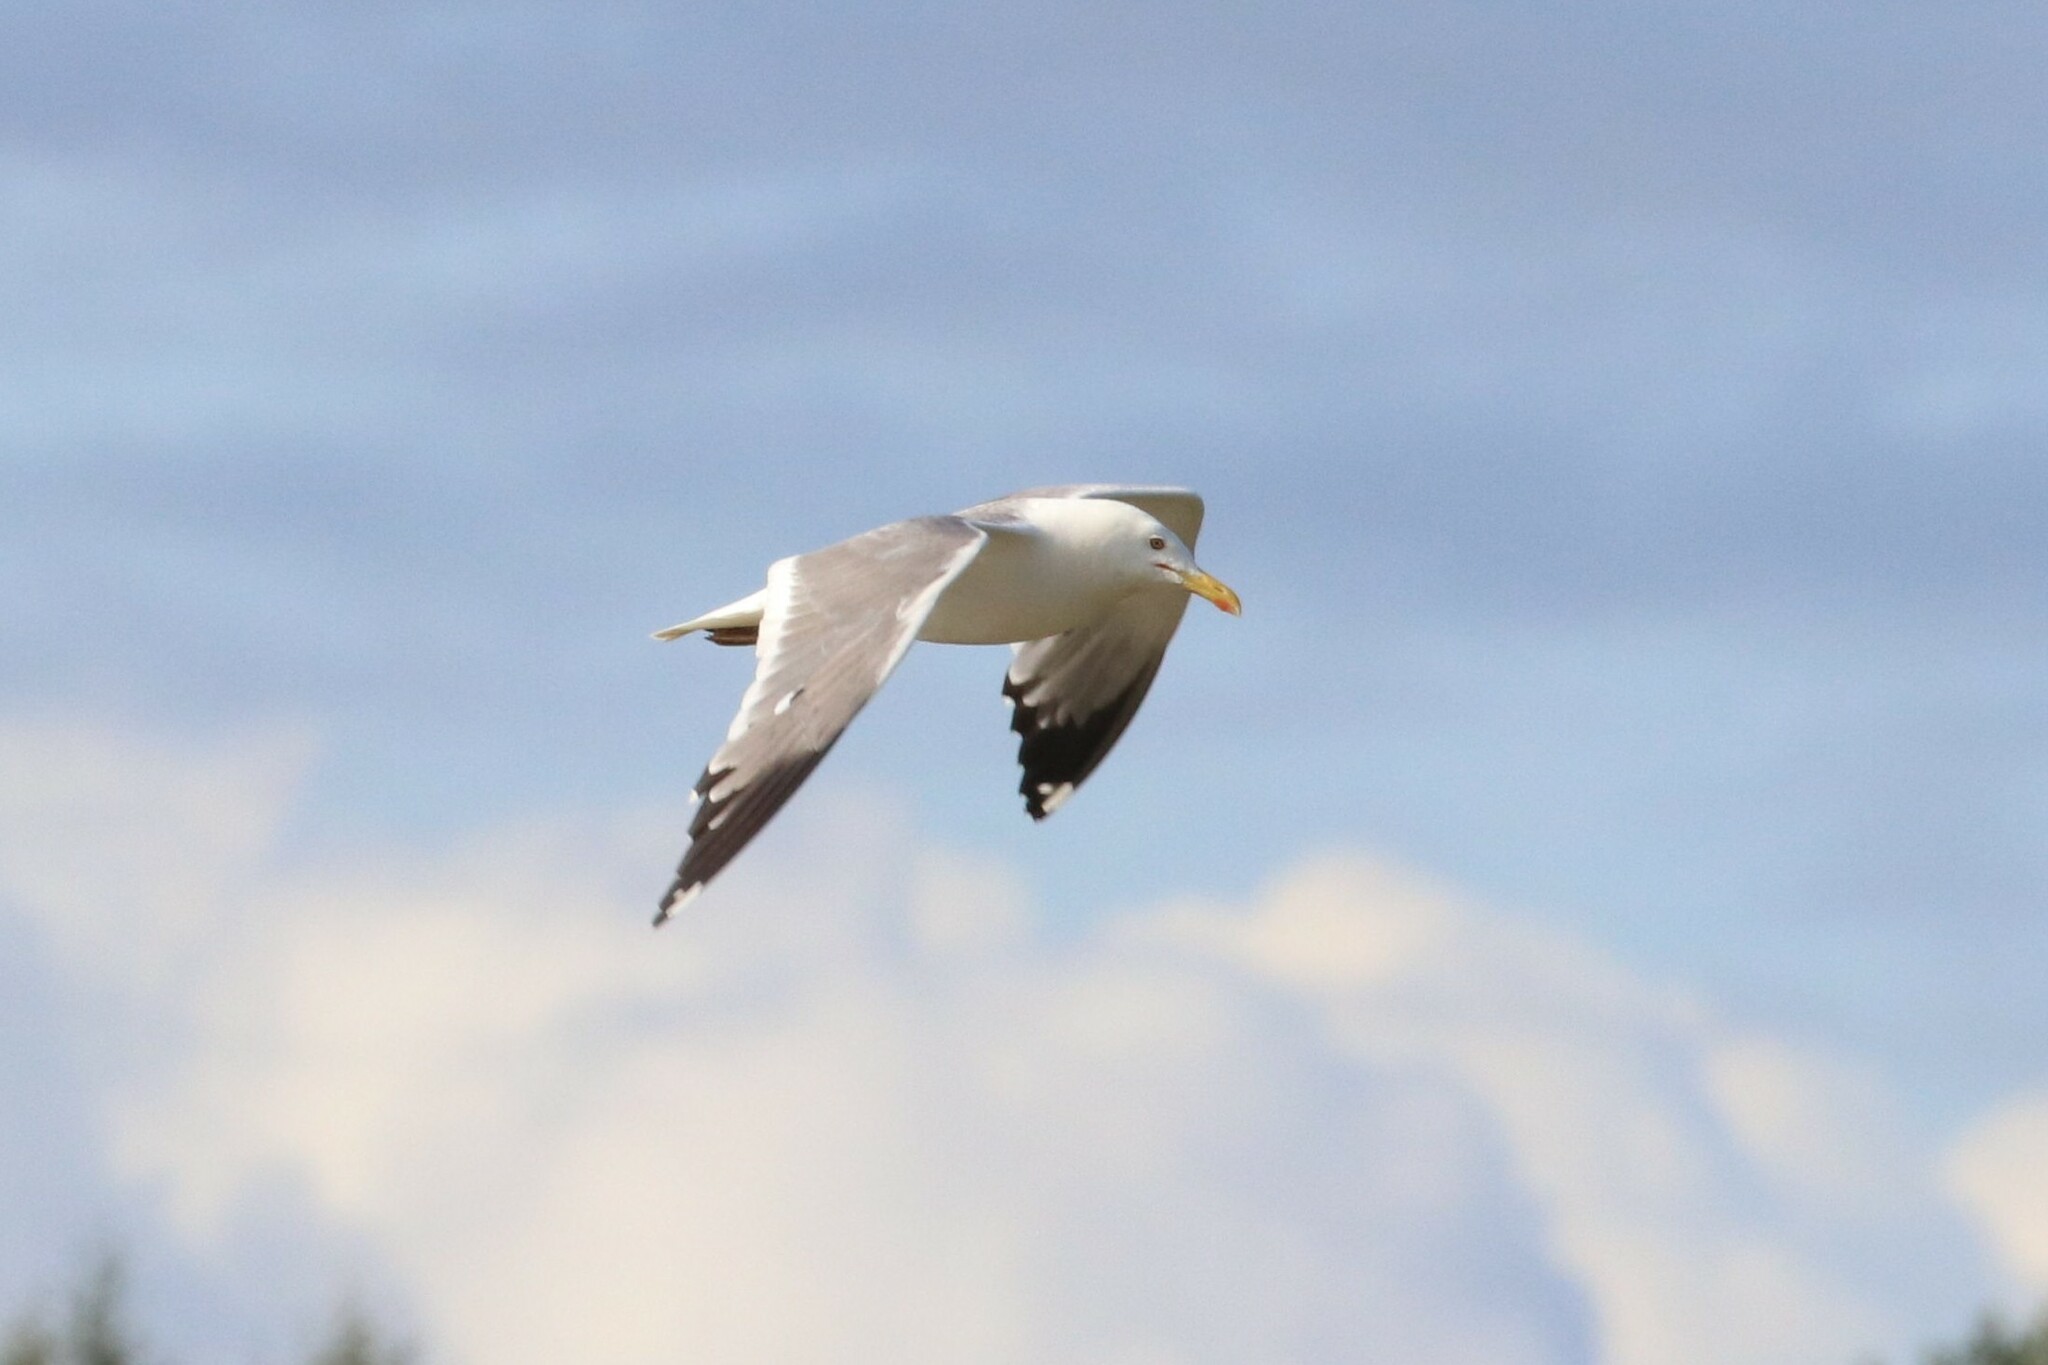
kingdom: Animalia
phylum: Chordata
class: Aves
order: Charadriiformes
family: Laridae
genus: Larus
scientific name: Larus fuscus
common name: Lesser black-backed gull
